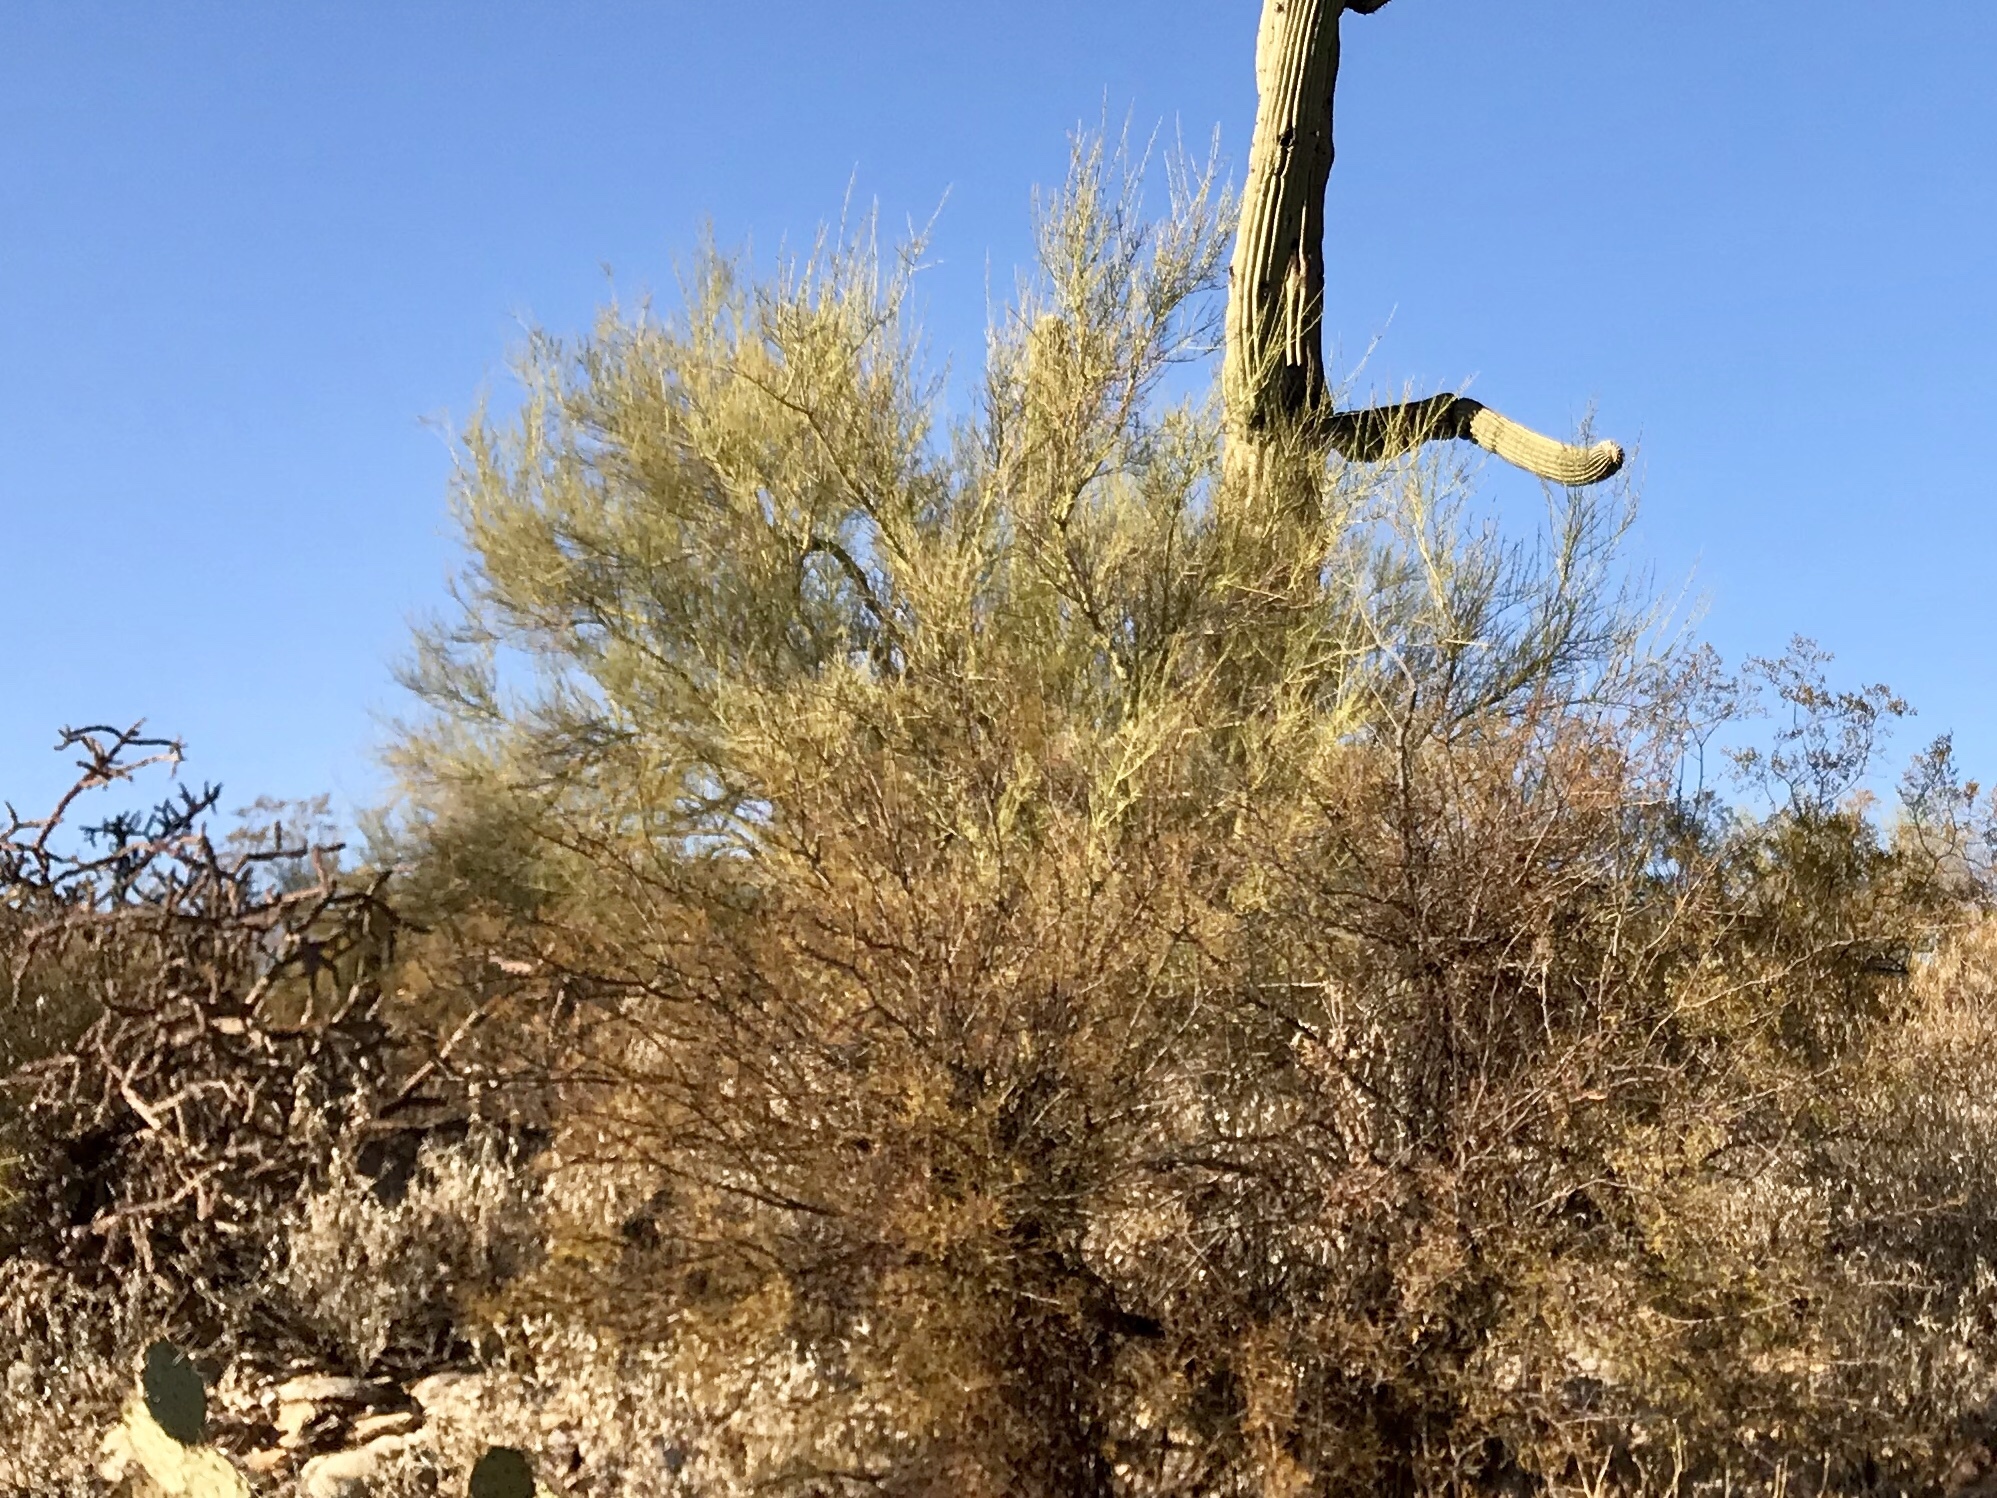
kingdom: Plantae
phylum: Tracheophyta
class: Magnoliopsida
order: Fabales
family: Fabaceae
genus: Parkinsonia
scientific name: Parkinsonia microphylla
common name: Yellow paloverde
